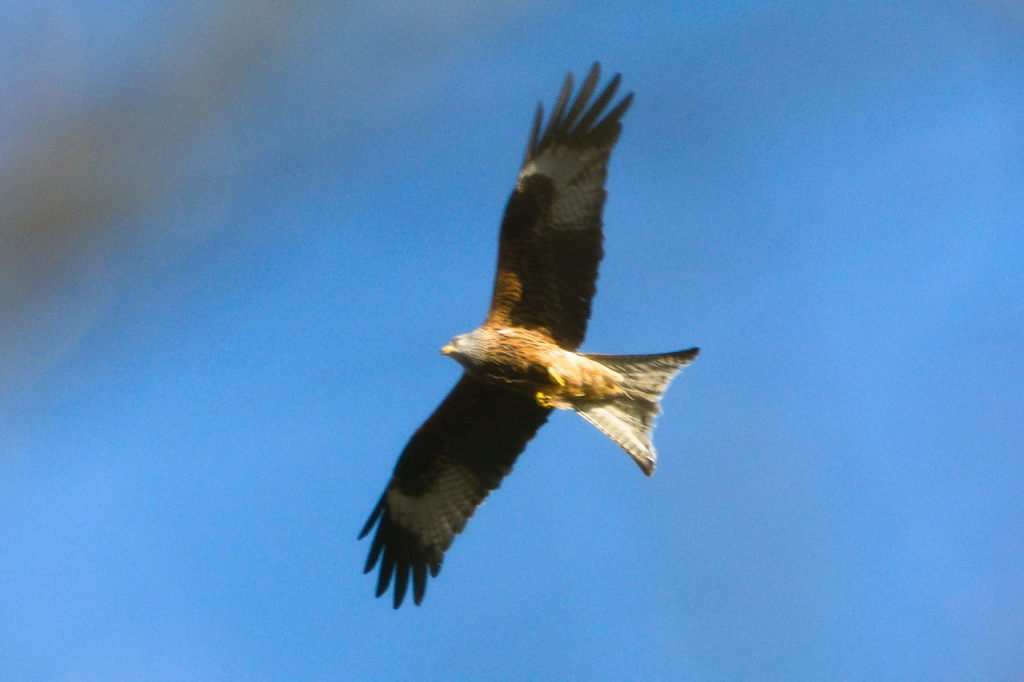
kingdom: Animalia
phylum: Chordata
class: Aves
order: Accipitriformes
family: Accipitridae
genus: Milvus
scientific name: Milvus milvus
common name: Red kite
